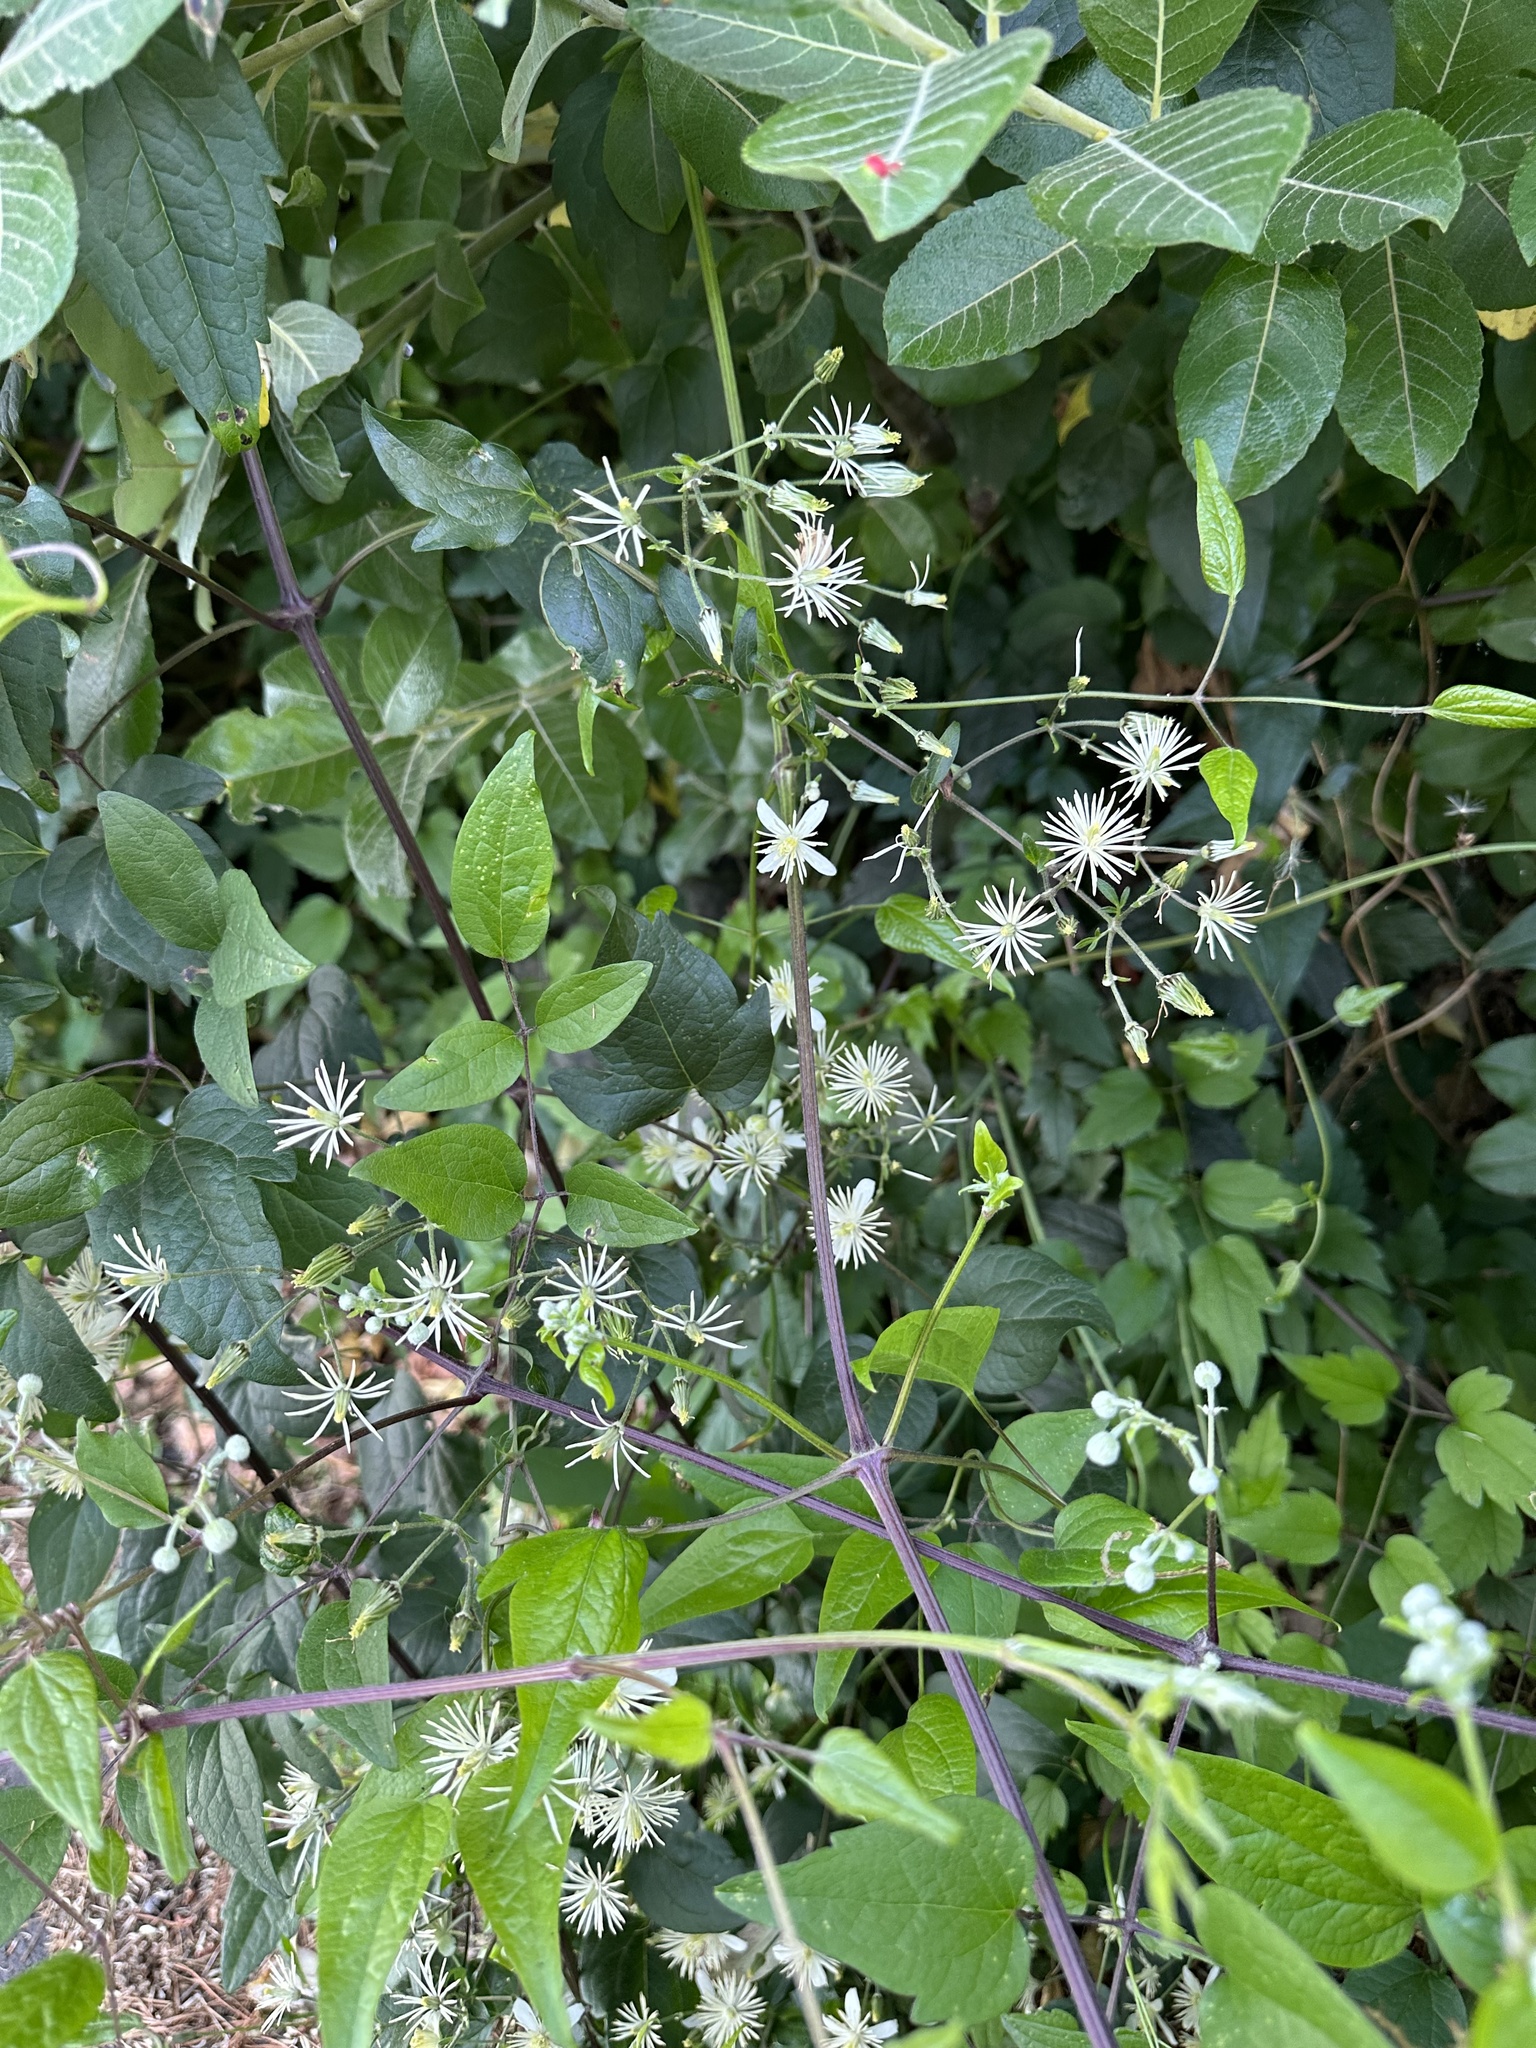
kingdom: Plantae
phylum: Tracheophyta
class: Magnoliopsida
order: Ranunculales
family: Ranunculaceae
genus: Clematis
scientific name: Clematis vitalba
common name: Evergreen clematis
